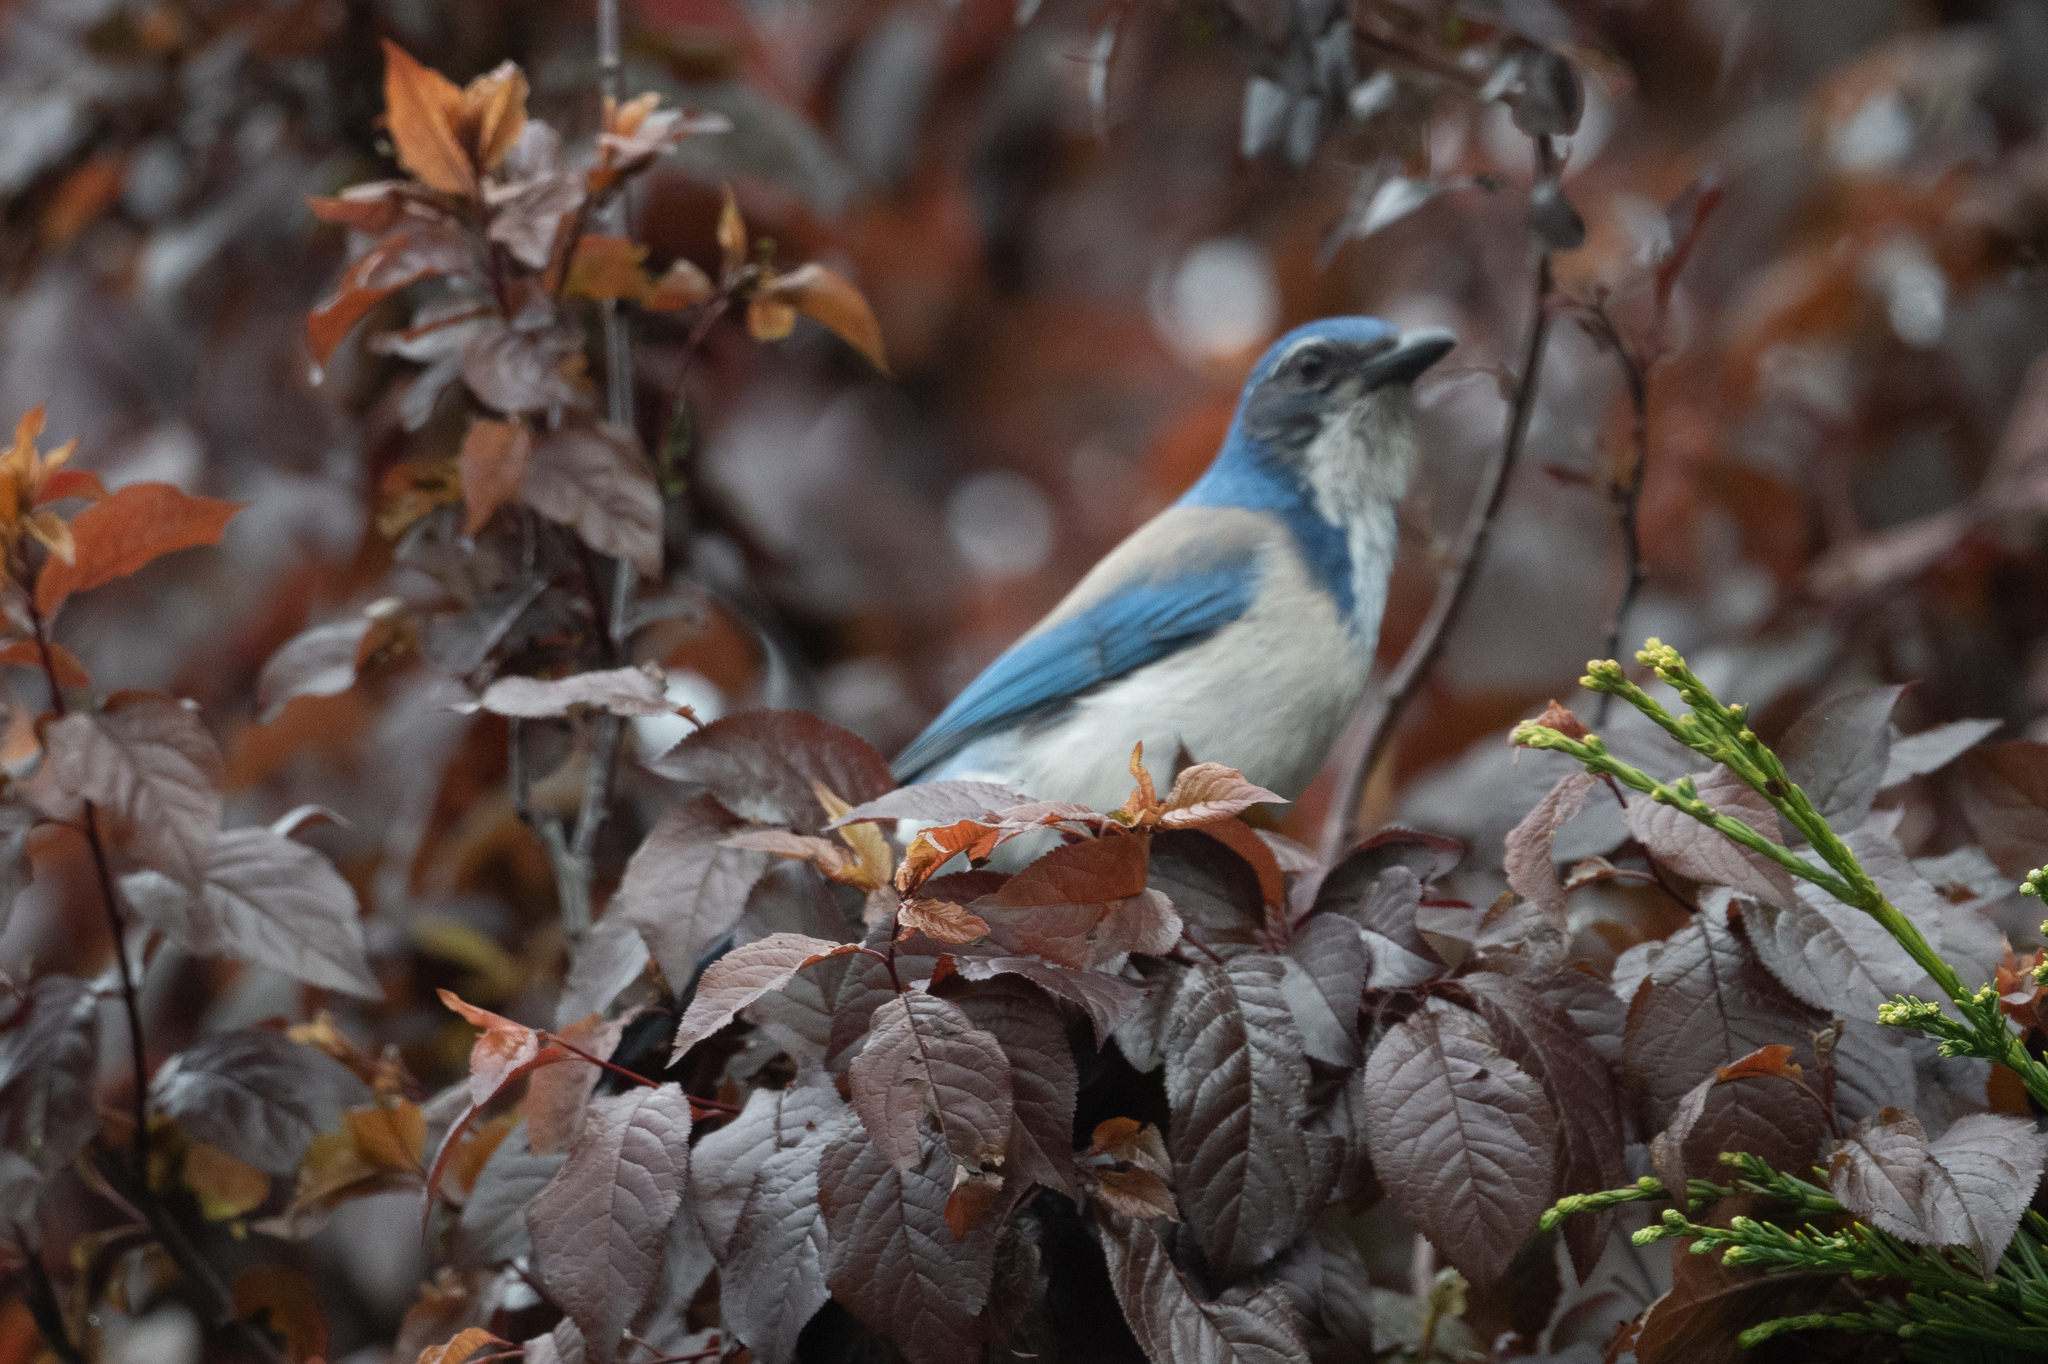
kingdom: Animalia
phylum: Chordata
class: Aves
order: Passeriformes
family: Corvidae
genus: Aphelocoma
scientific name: Aphelocoma californica
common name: California scrub-jay
